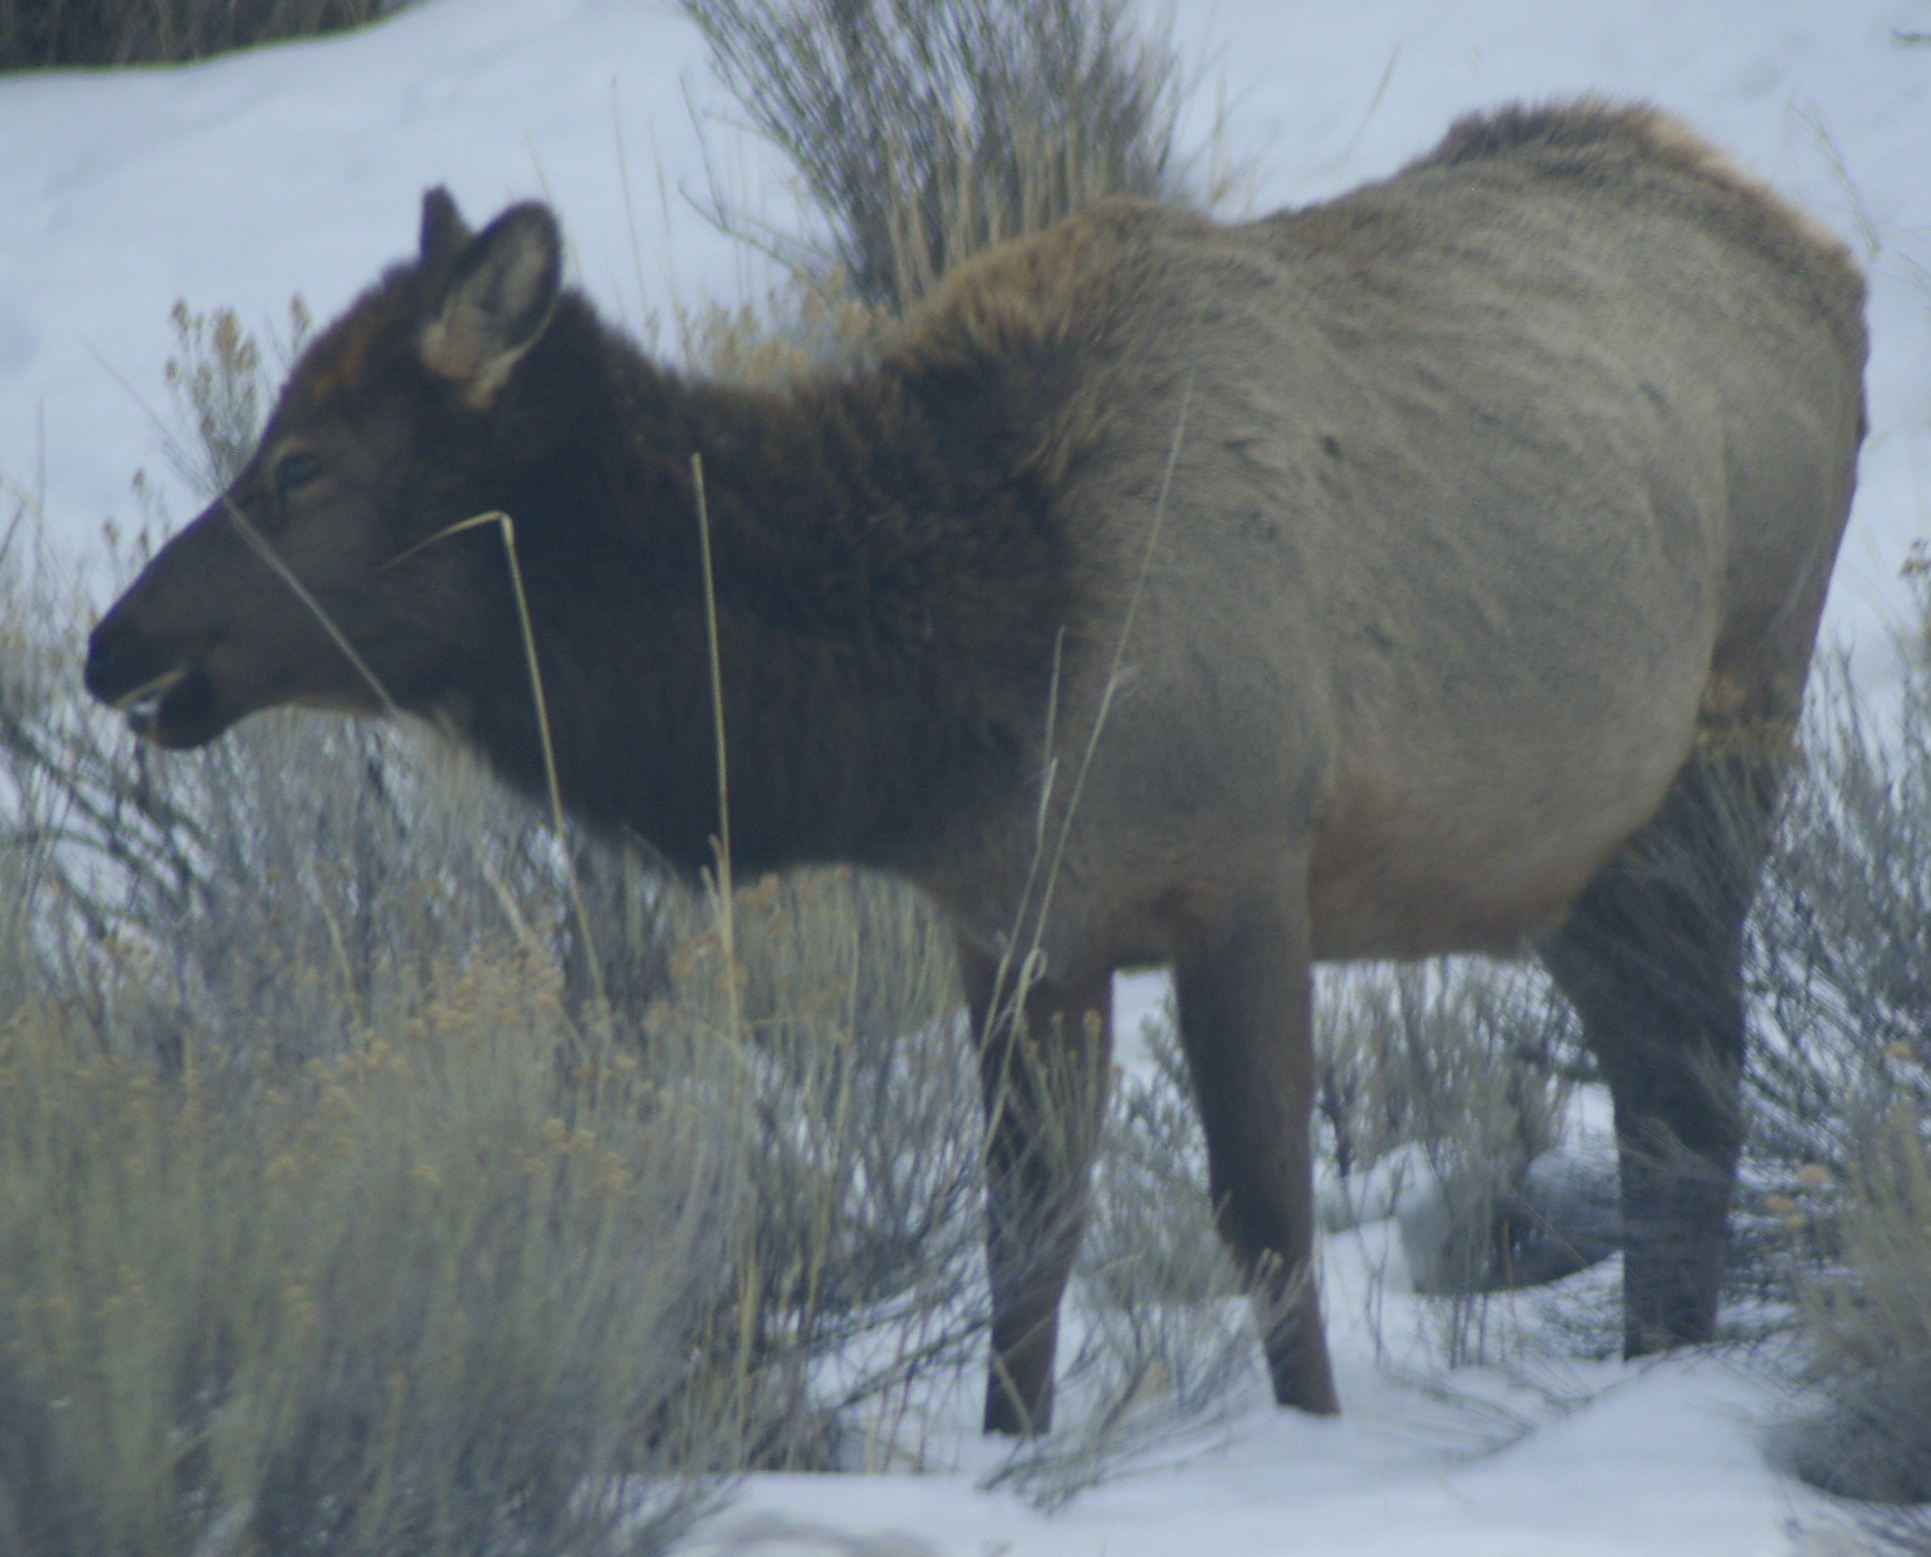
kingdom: Animalia
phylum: Chordata
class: Mammalia
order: Artiodactyla
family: Cervidae
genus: Cervus
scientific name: Cervus elaphus
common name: Red deer
